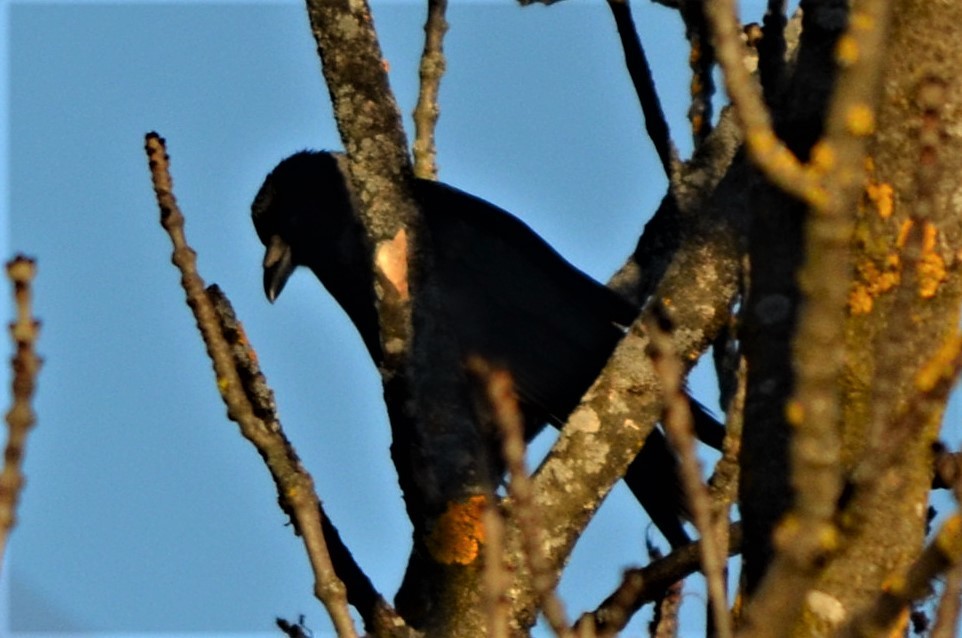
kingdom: Animalia
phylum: Chordata
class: Aves
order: Passeriformes
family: Corvidae
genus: Corvus
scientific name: Corvus corone
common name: Carrion crow
